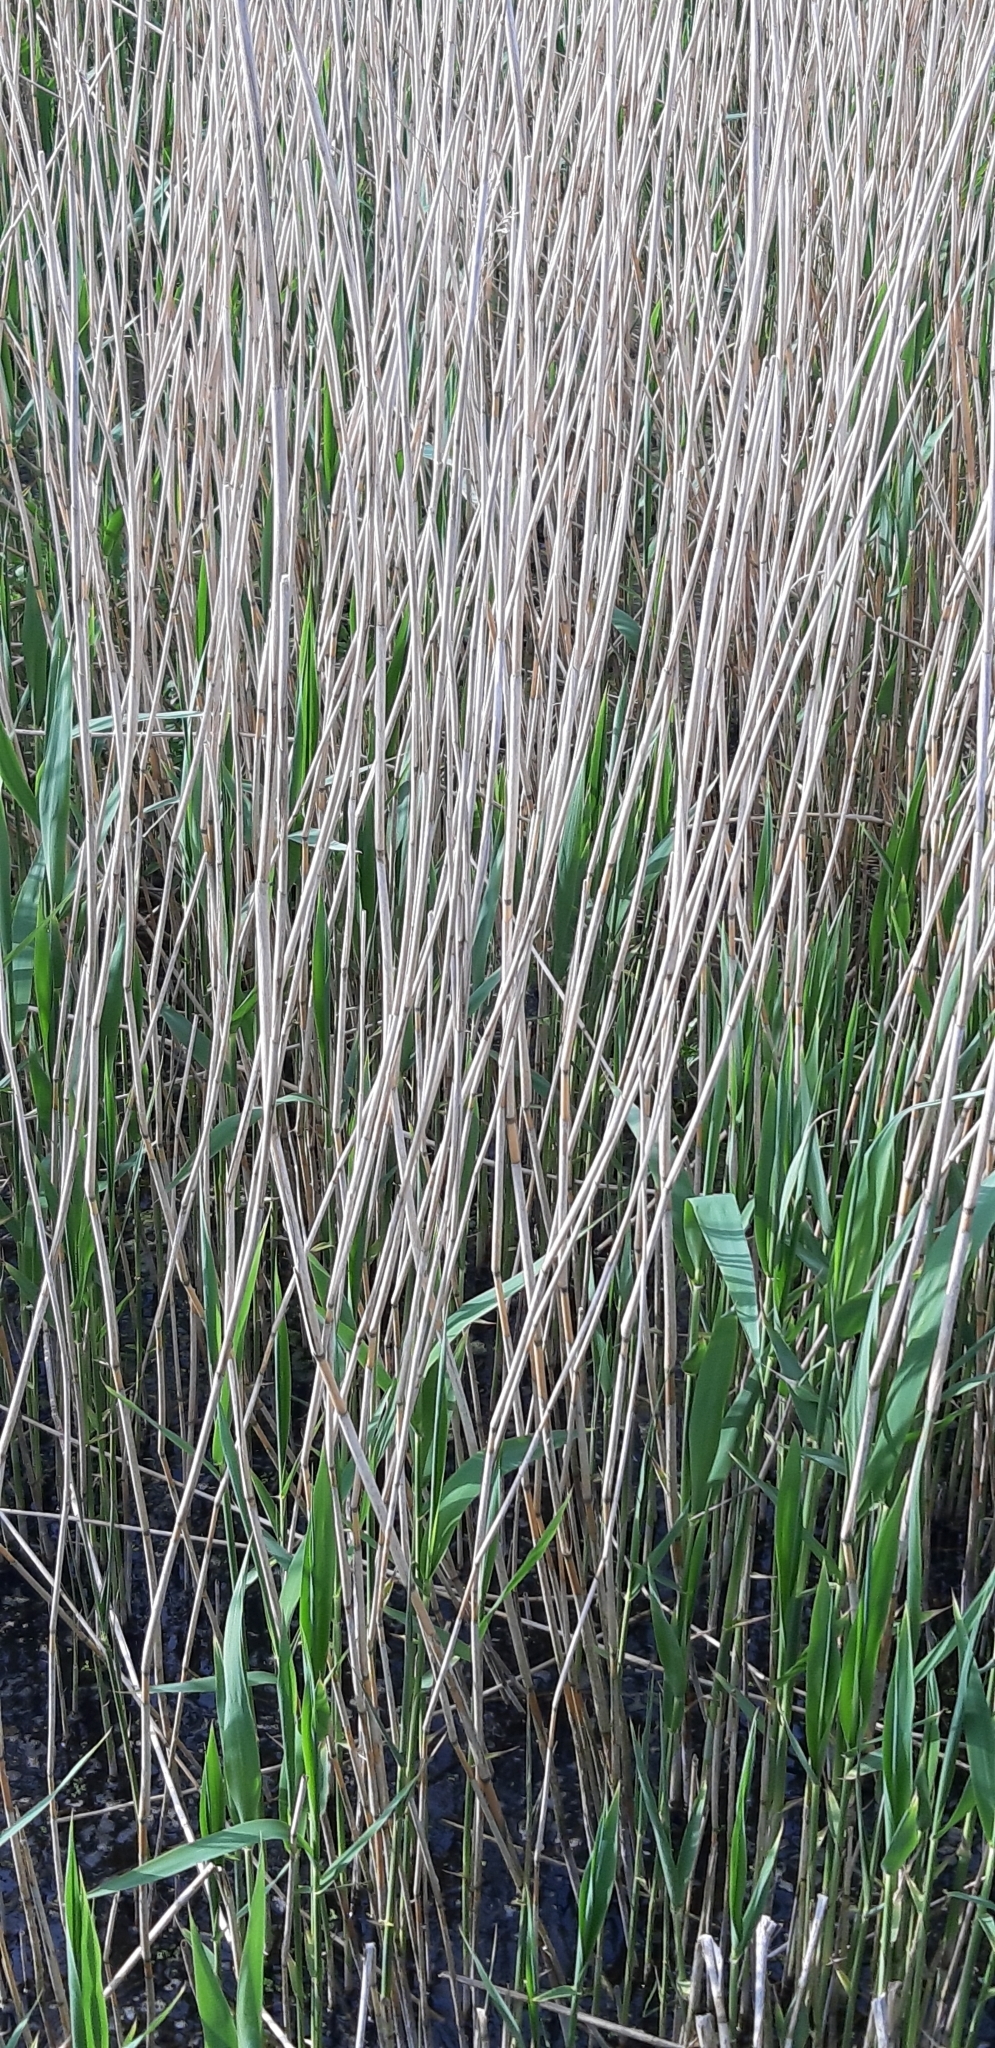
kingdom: Plantae
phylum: Tracheophyta
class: Liliopsida
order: Poales
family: Poaceae
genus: Phragmites
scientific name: Phragmites australis
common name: Common reed
